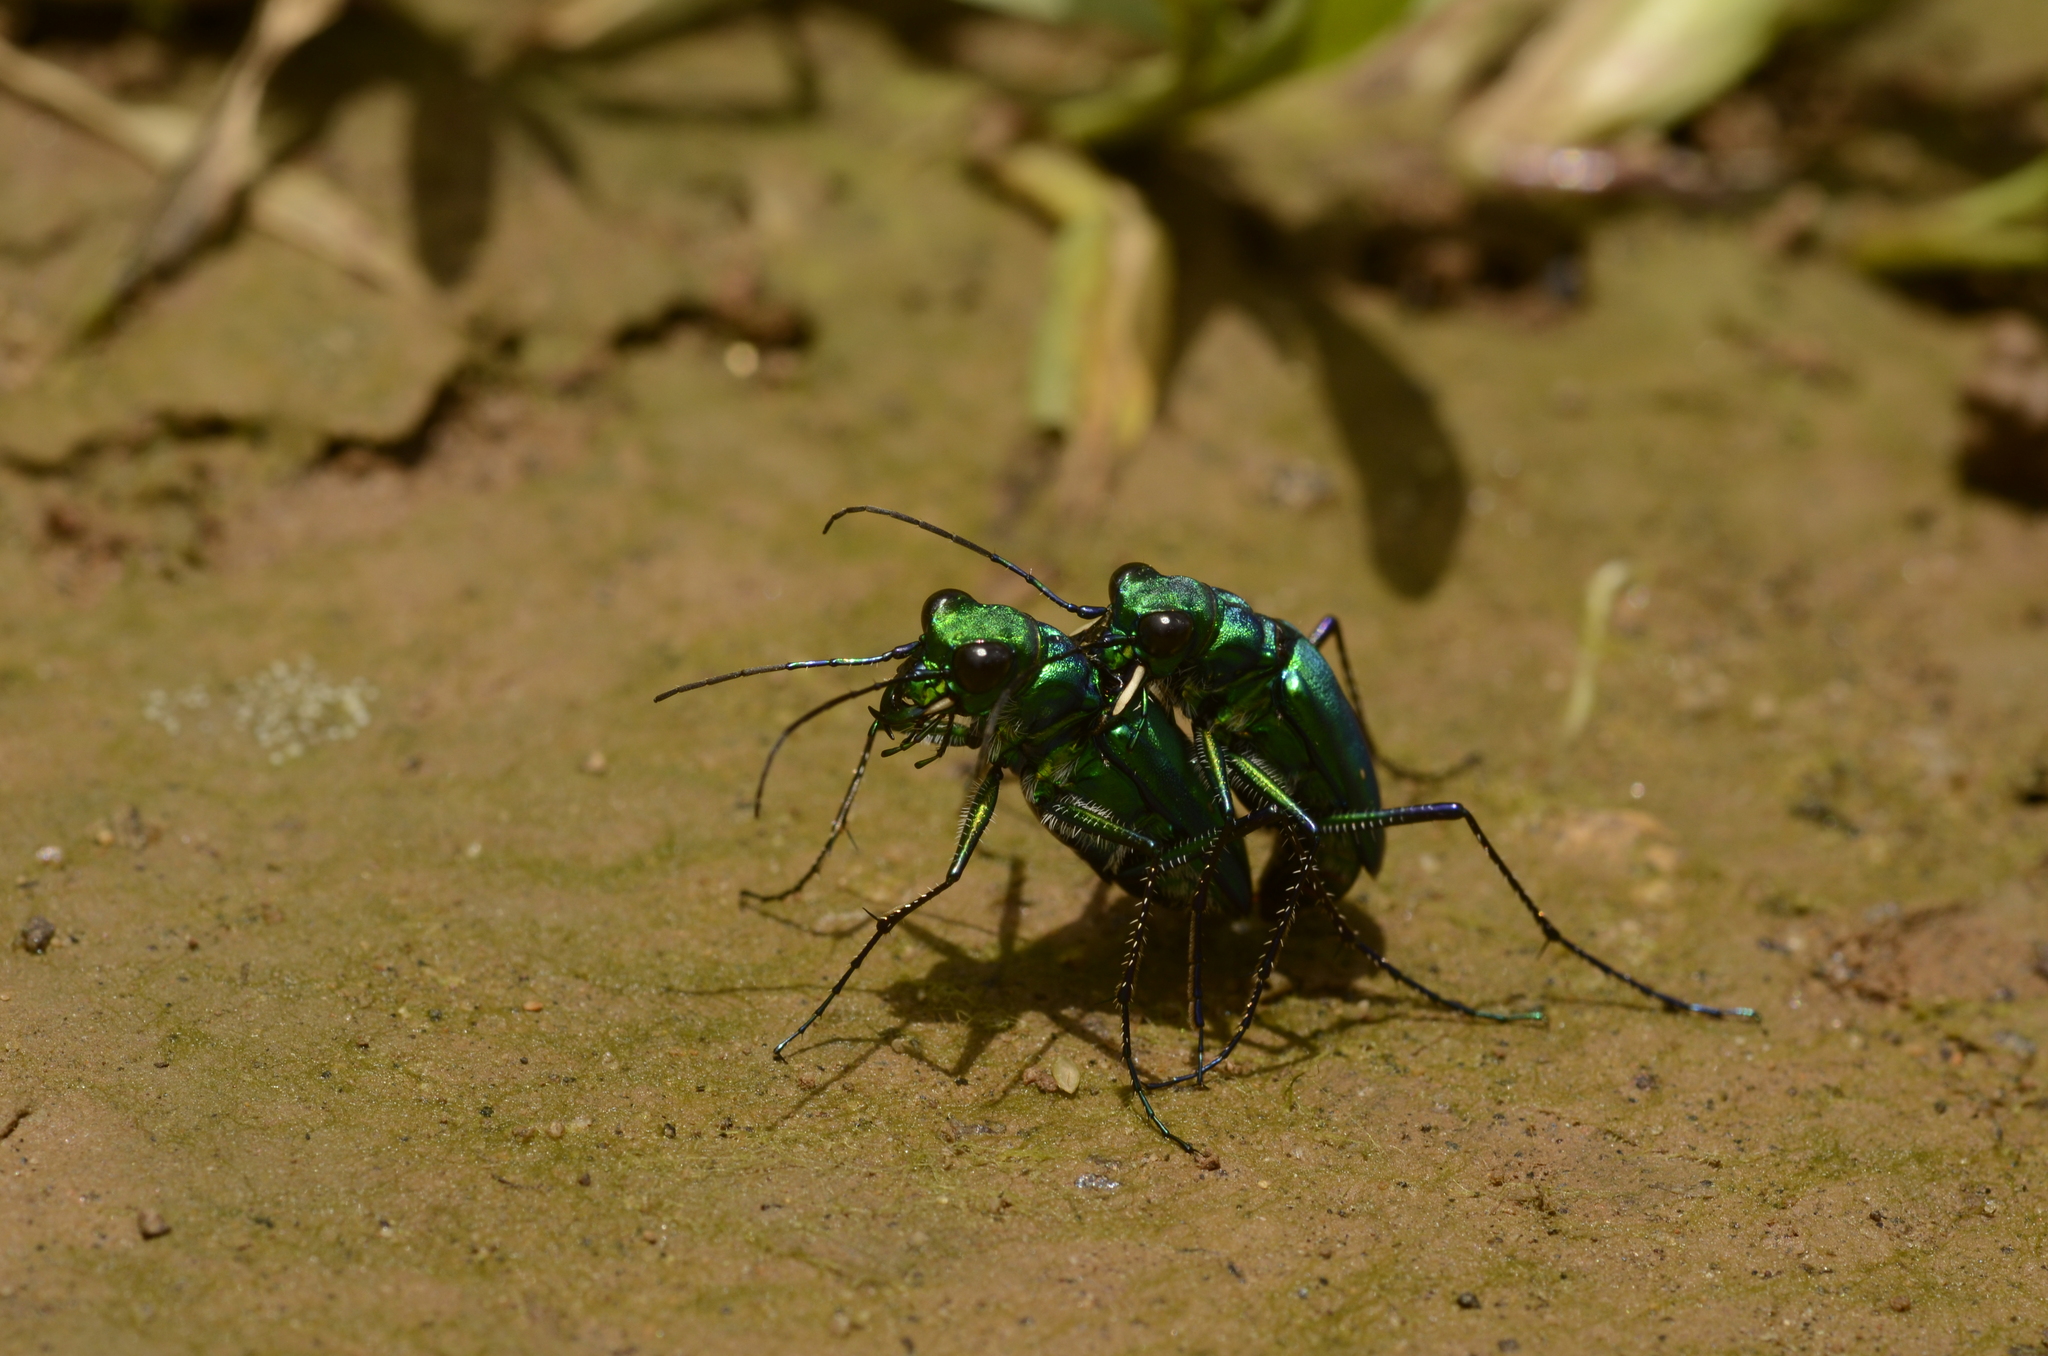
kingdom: Animalia
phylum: Arthropoda
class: Insecta
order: Coleoptera
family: Carabidae
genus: Cicindela
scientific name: Cicindela whithillii
